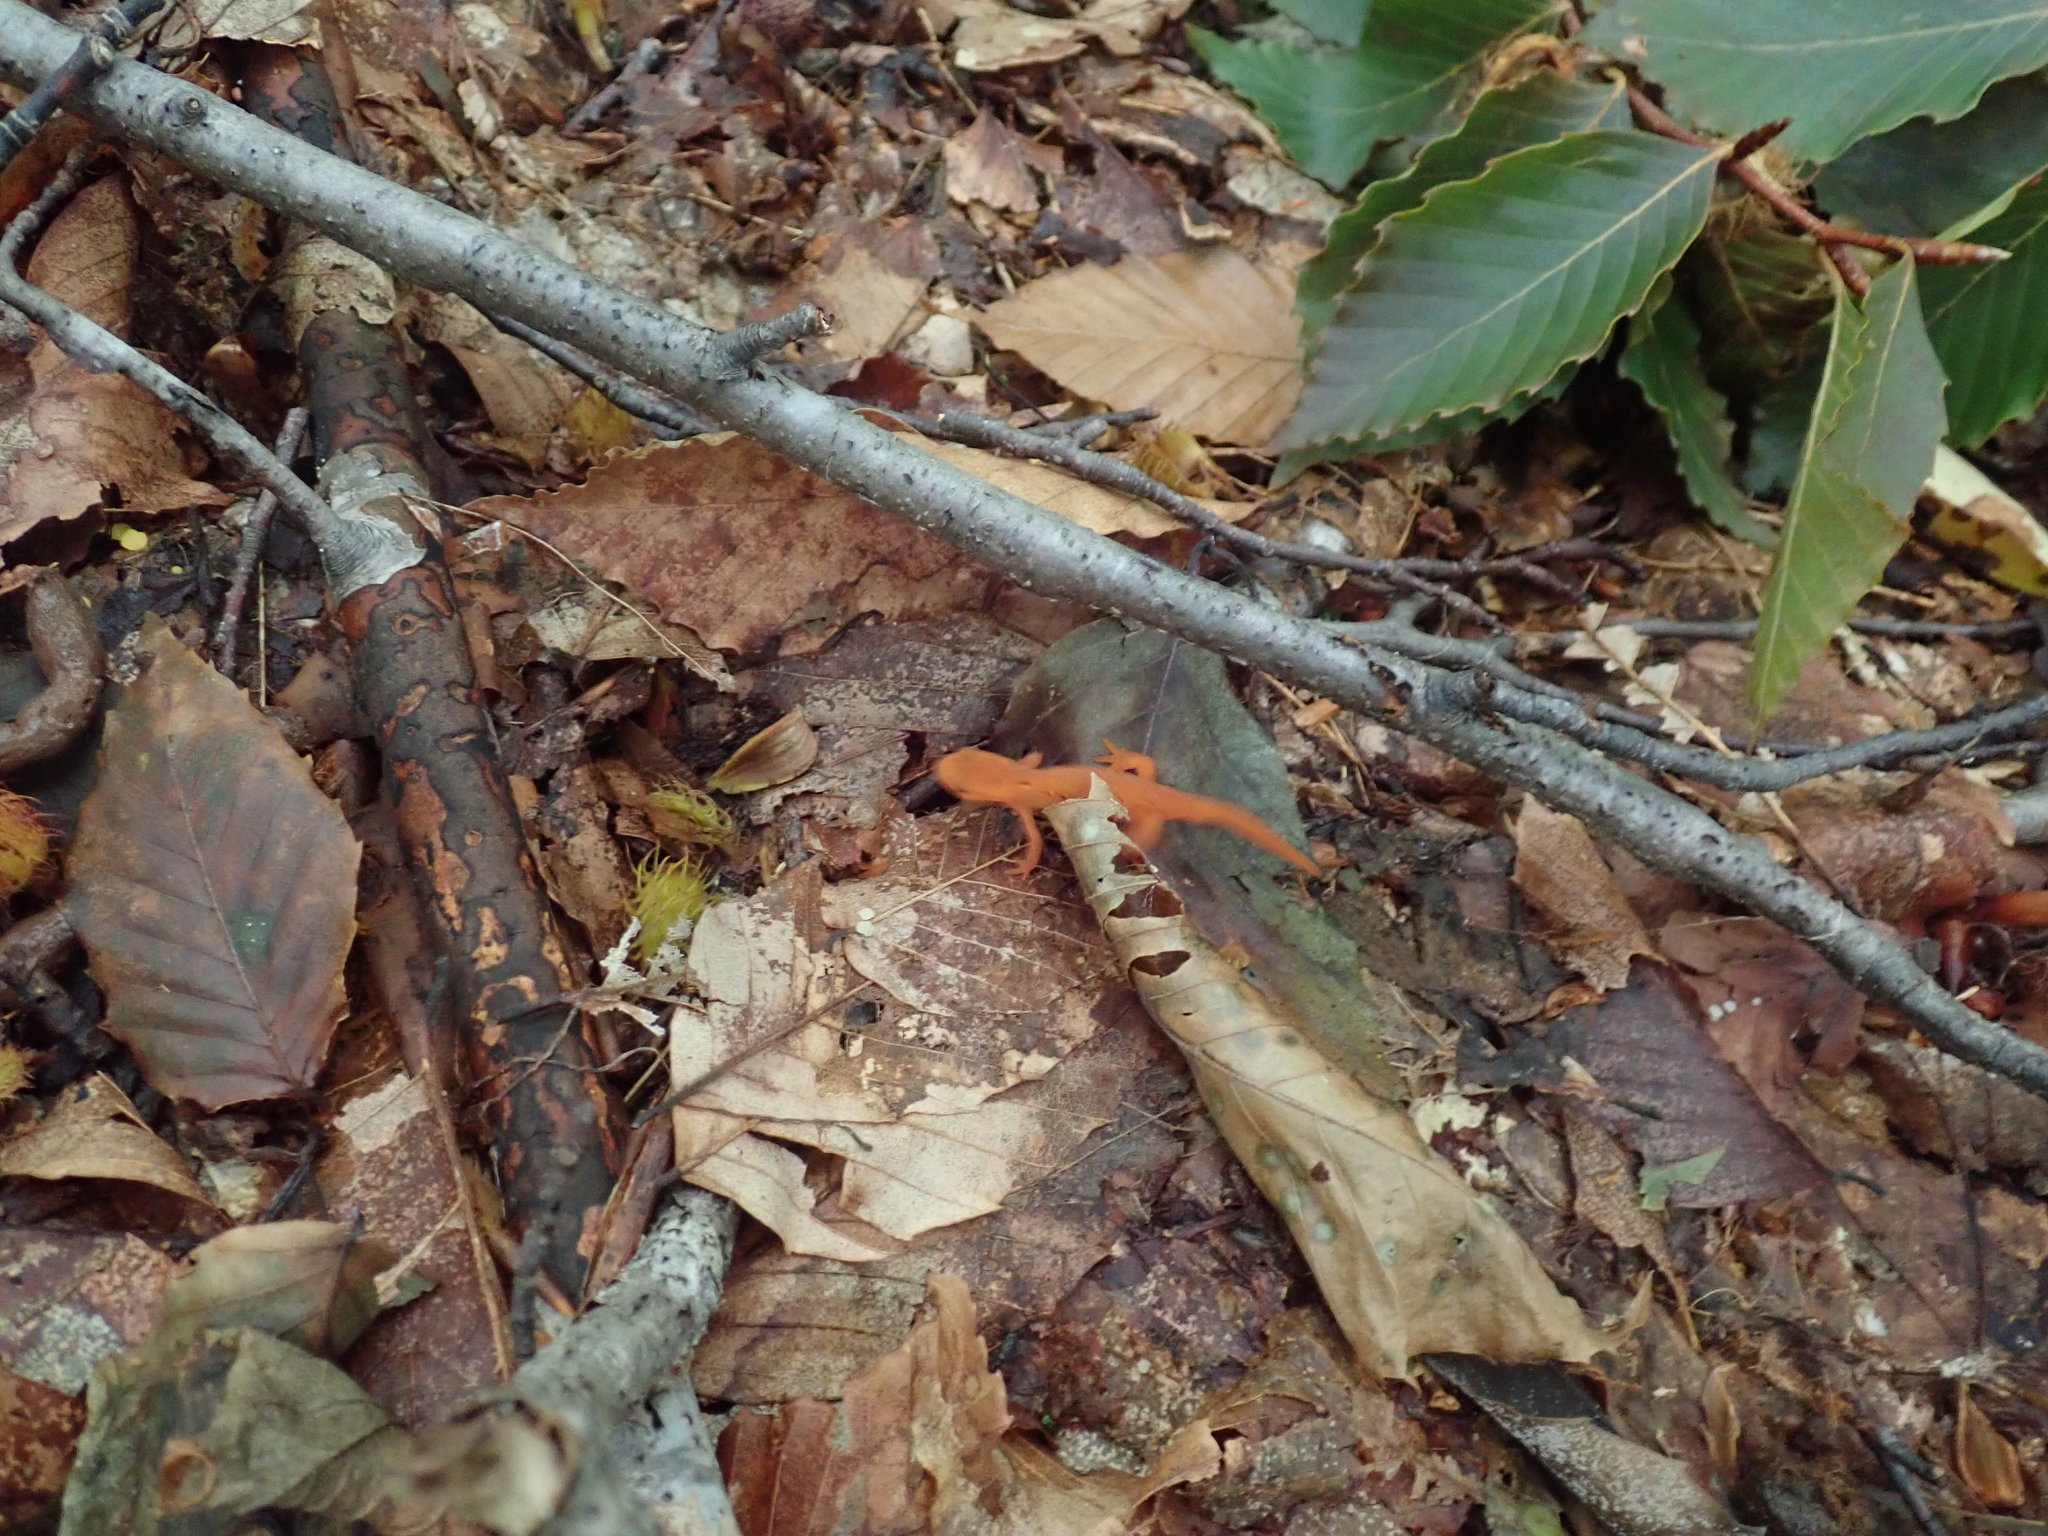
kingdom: Animalia
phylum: Chordata
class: Amphibia
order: Caudata
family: Salamandridae
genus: Notophthalmus
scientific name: Notophthalmus viridescens
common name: Eastern newt
